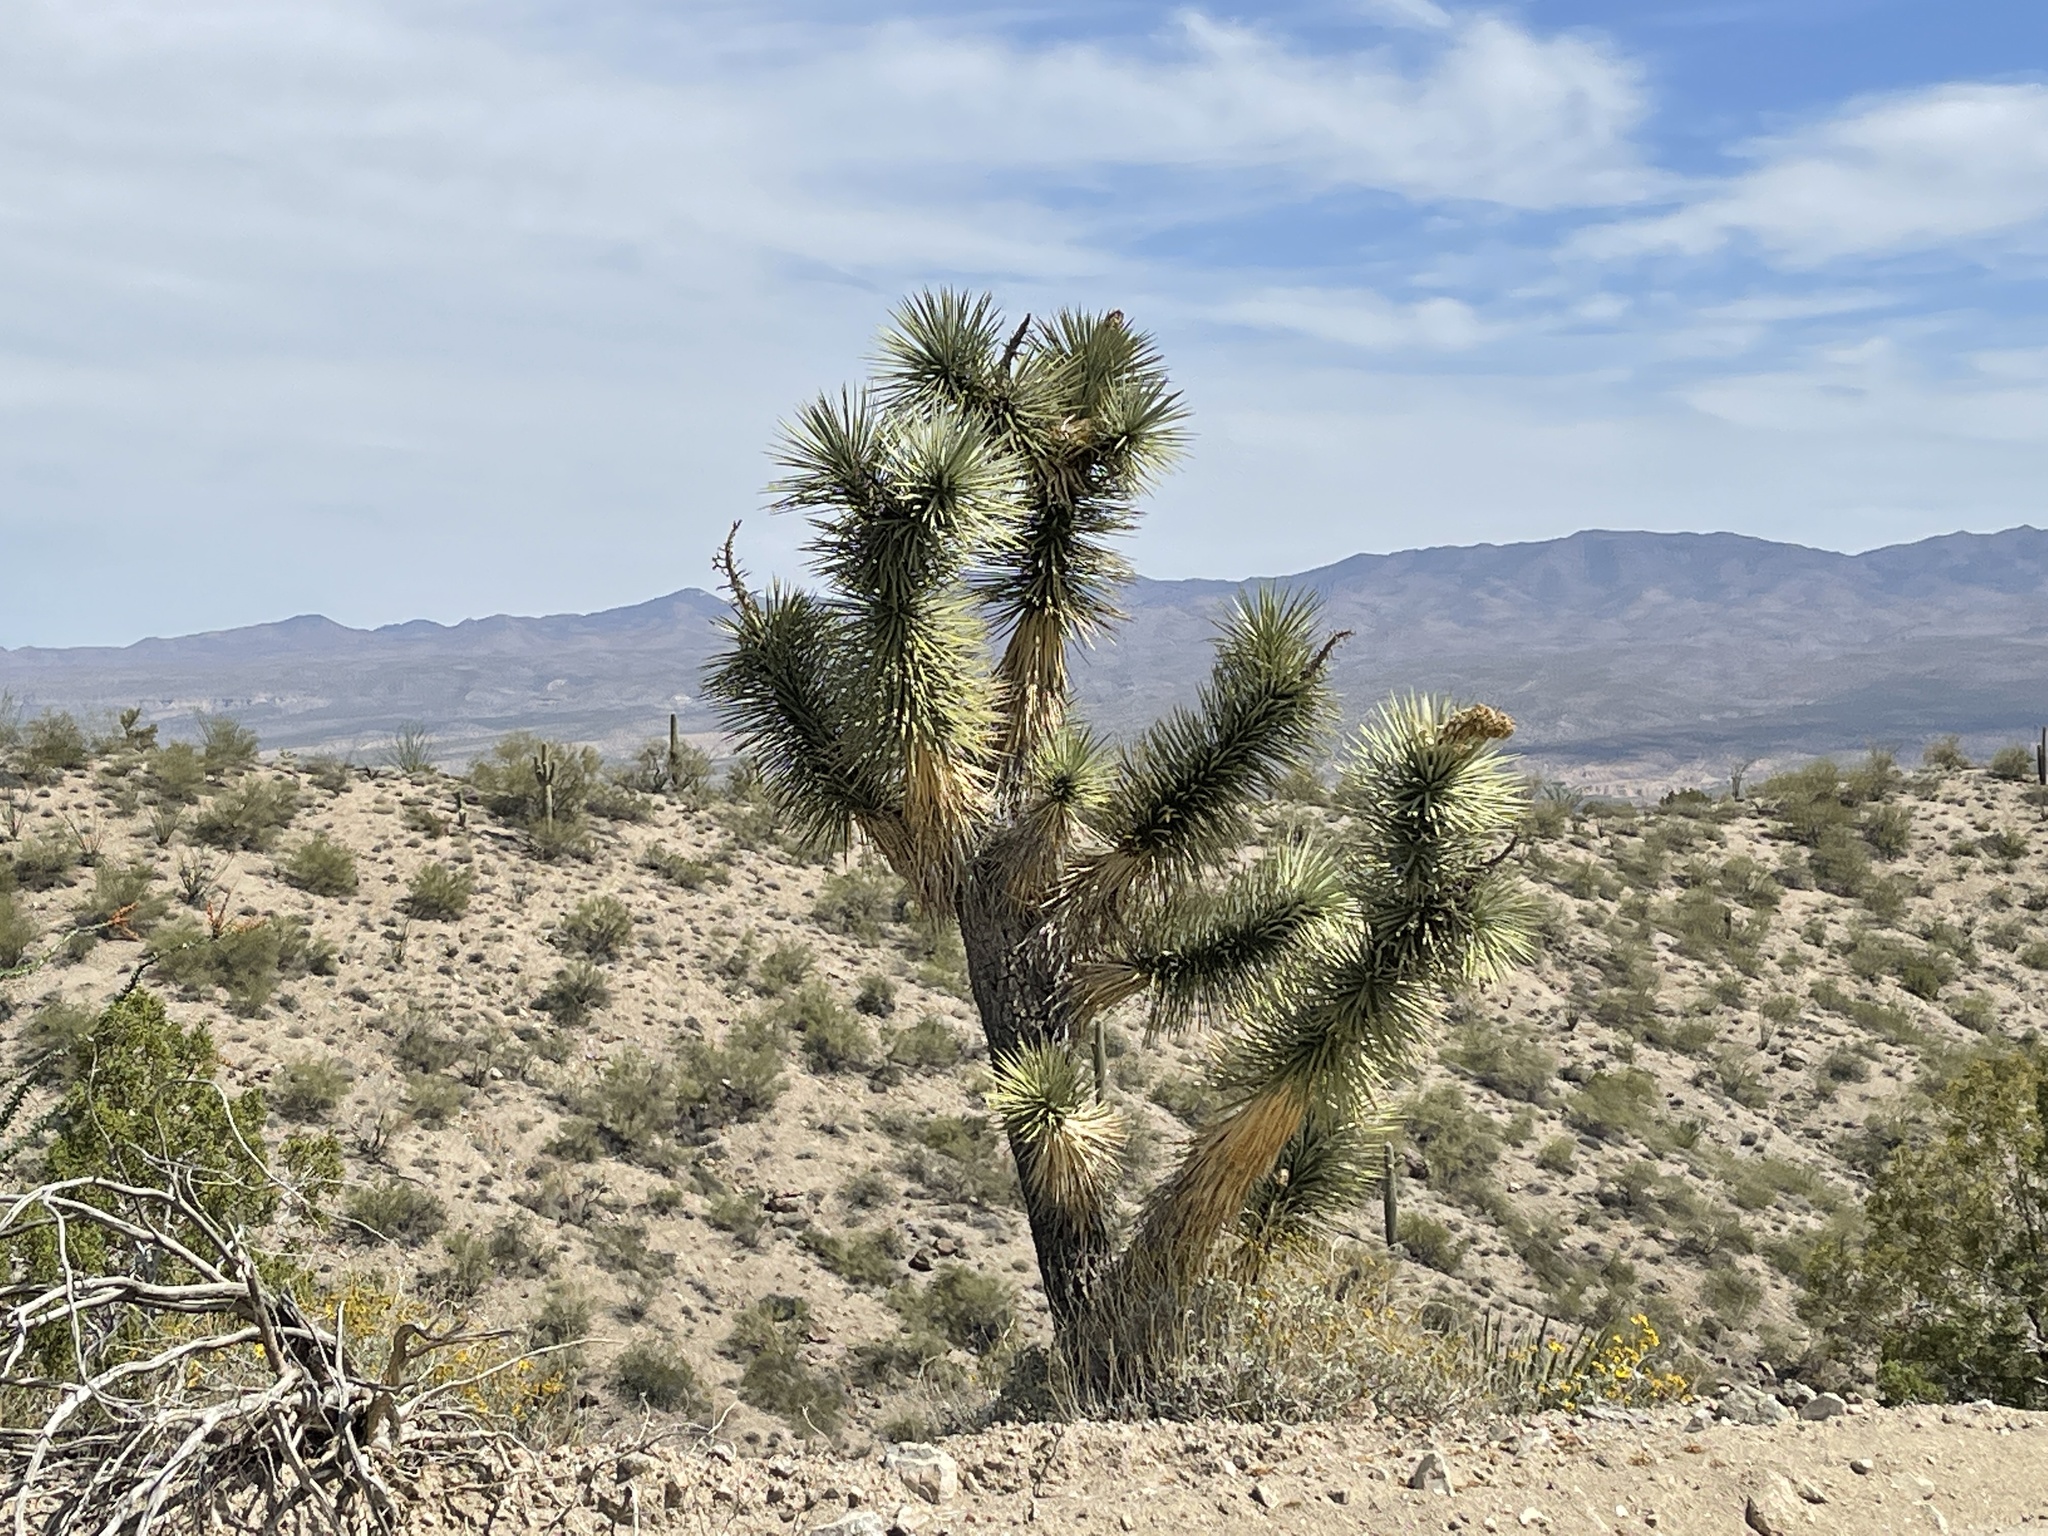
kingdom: Plantae
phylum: Tracheophyta
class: Liliopsida
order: Asparagales
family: Asparagaceae
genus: Yucca
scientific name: Yucca brevifolia
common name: Joshua tree
